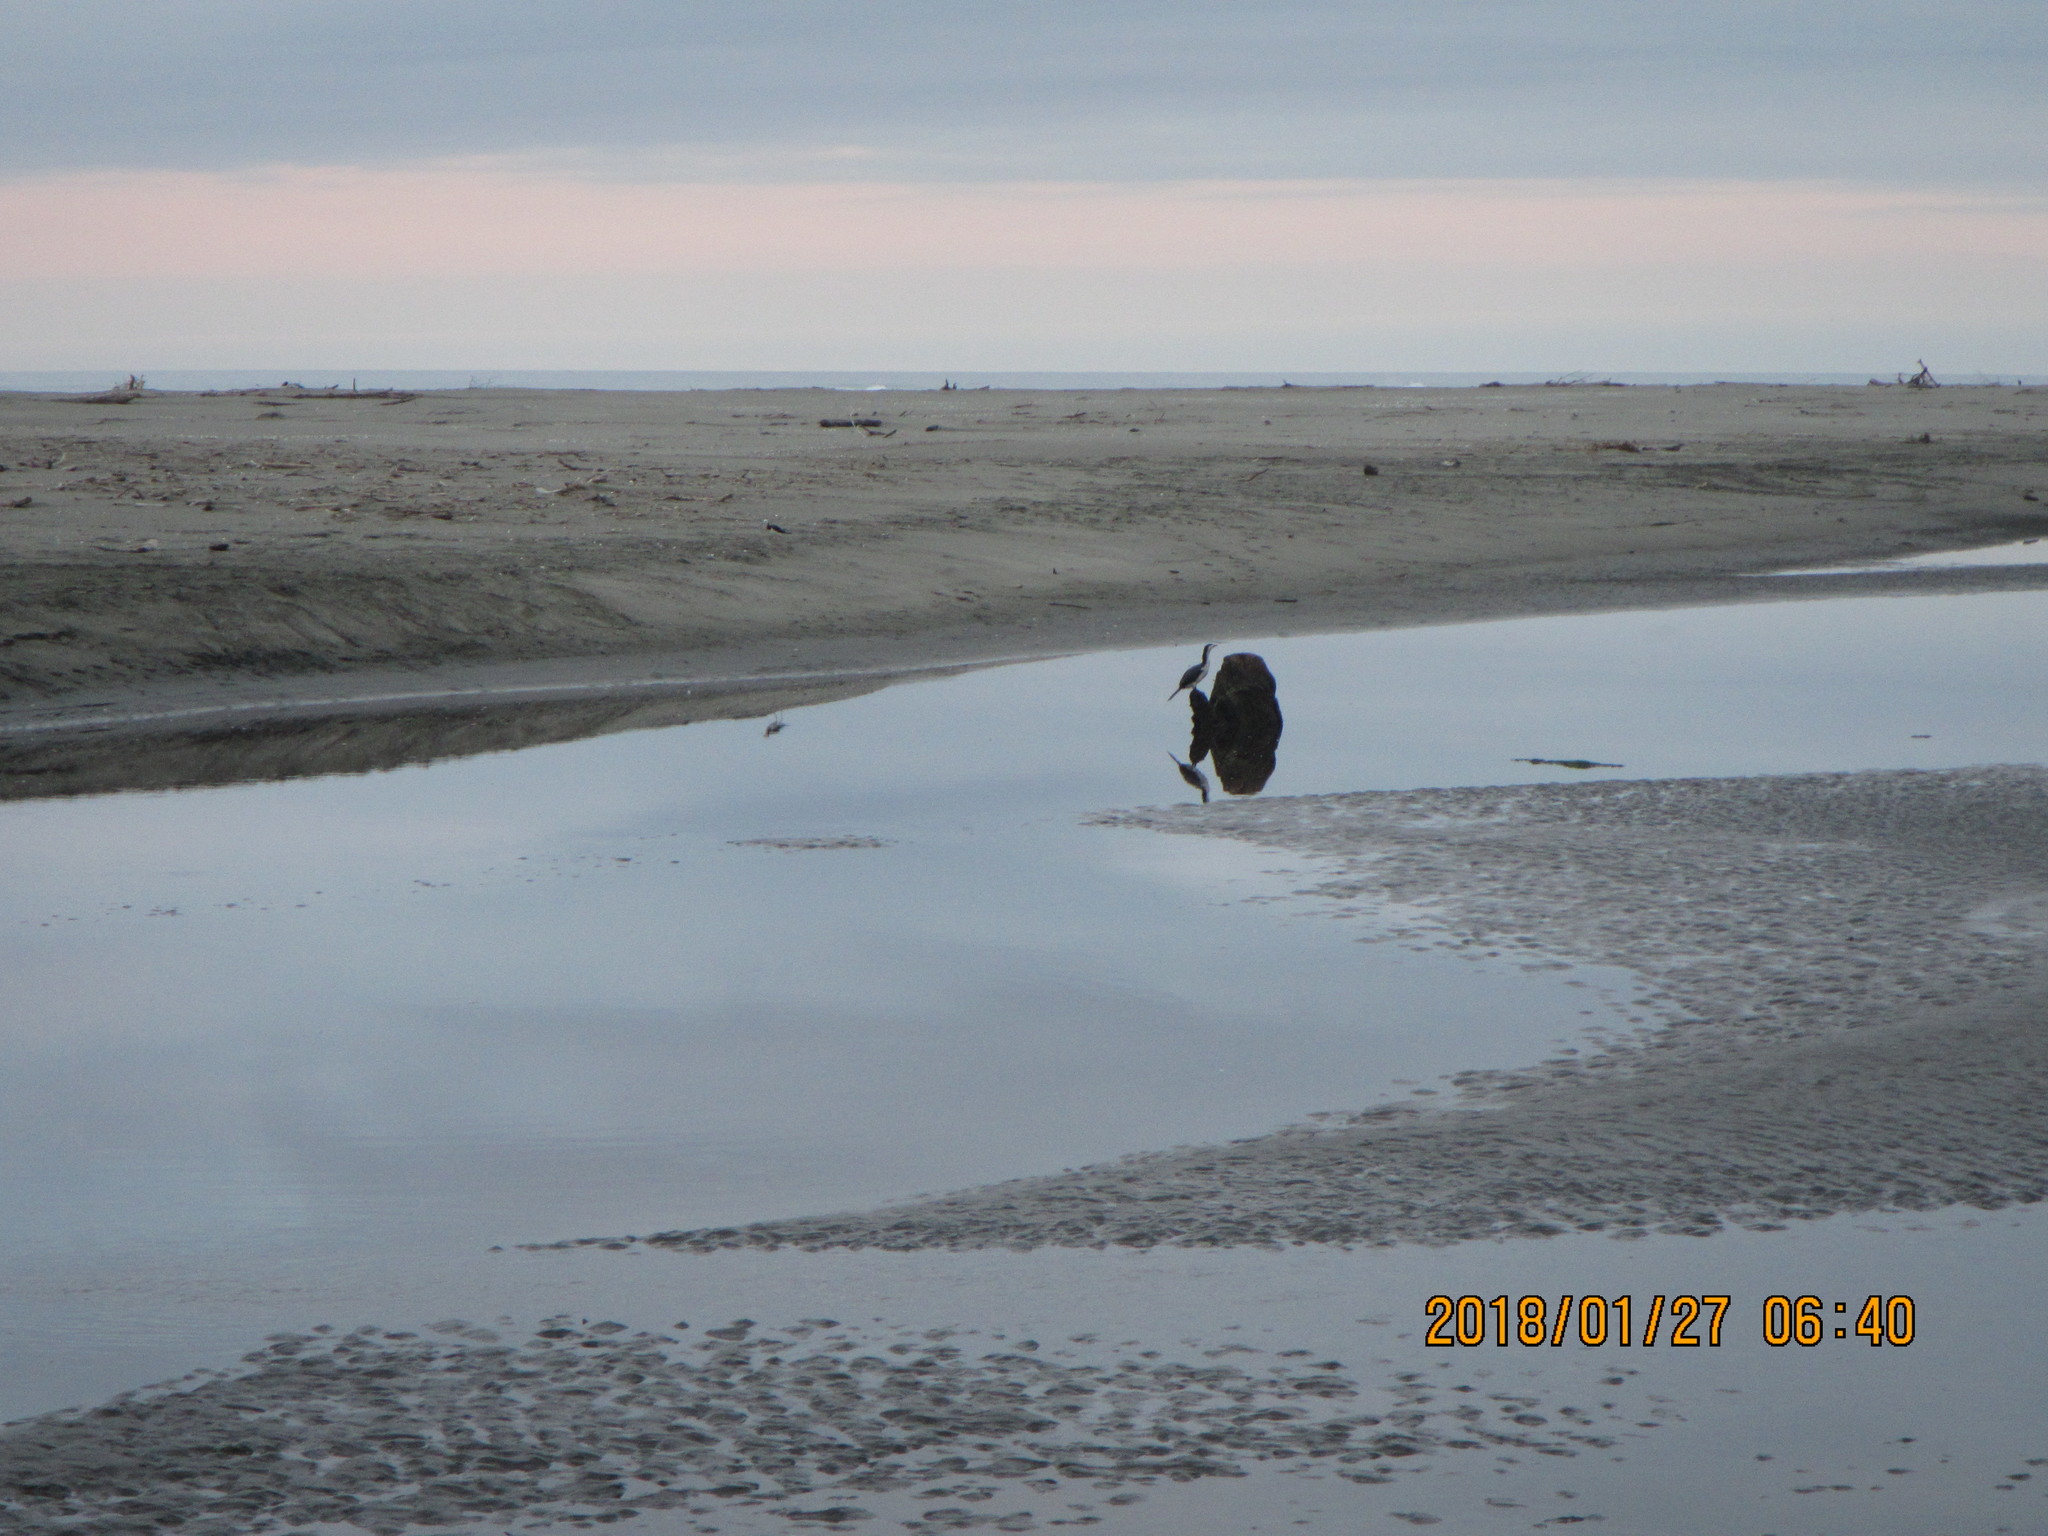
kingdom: Animalia
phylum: Chordata
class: Aves
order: Suliformes
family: Phalacrocoracidae
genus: Phalacrocorax
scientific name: Phalacrocorax varius
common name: Pied cormorant
